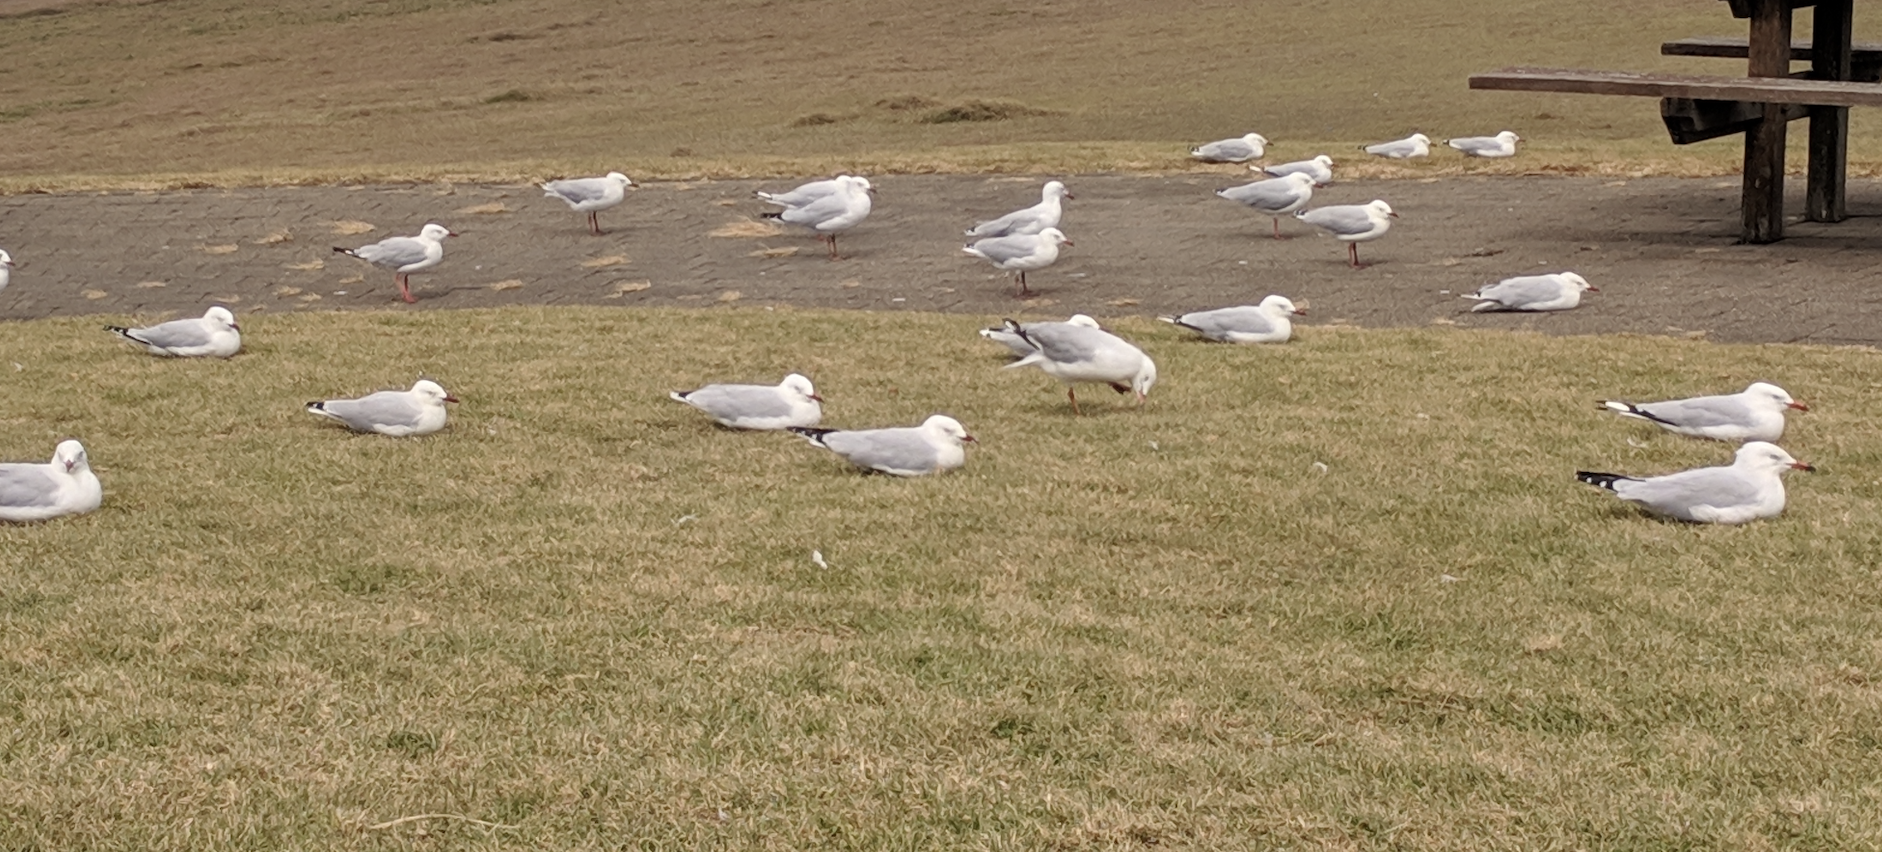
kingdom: Animalia
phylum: Chordata
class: Aves
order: Charadriiformes
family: Laridae
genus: Chroicocephalus
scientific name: Chroicocephalus novaehollandiae
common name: Silver gull
